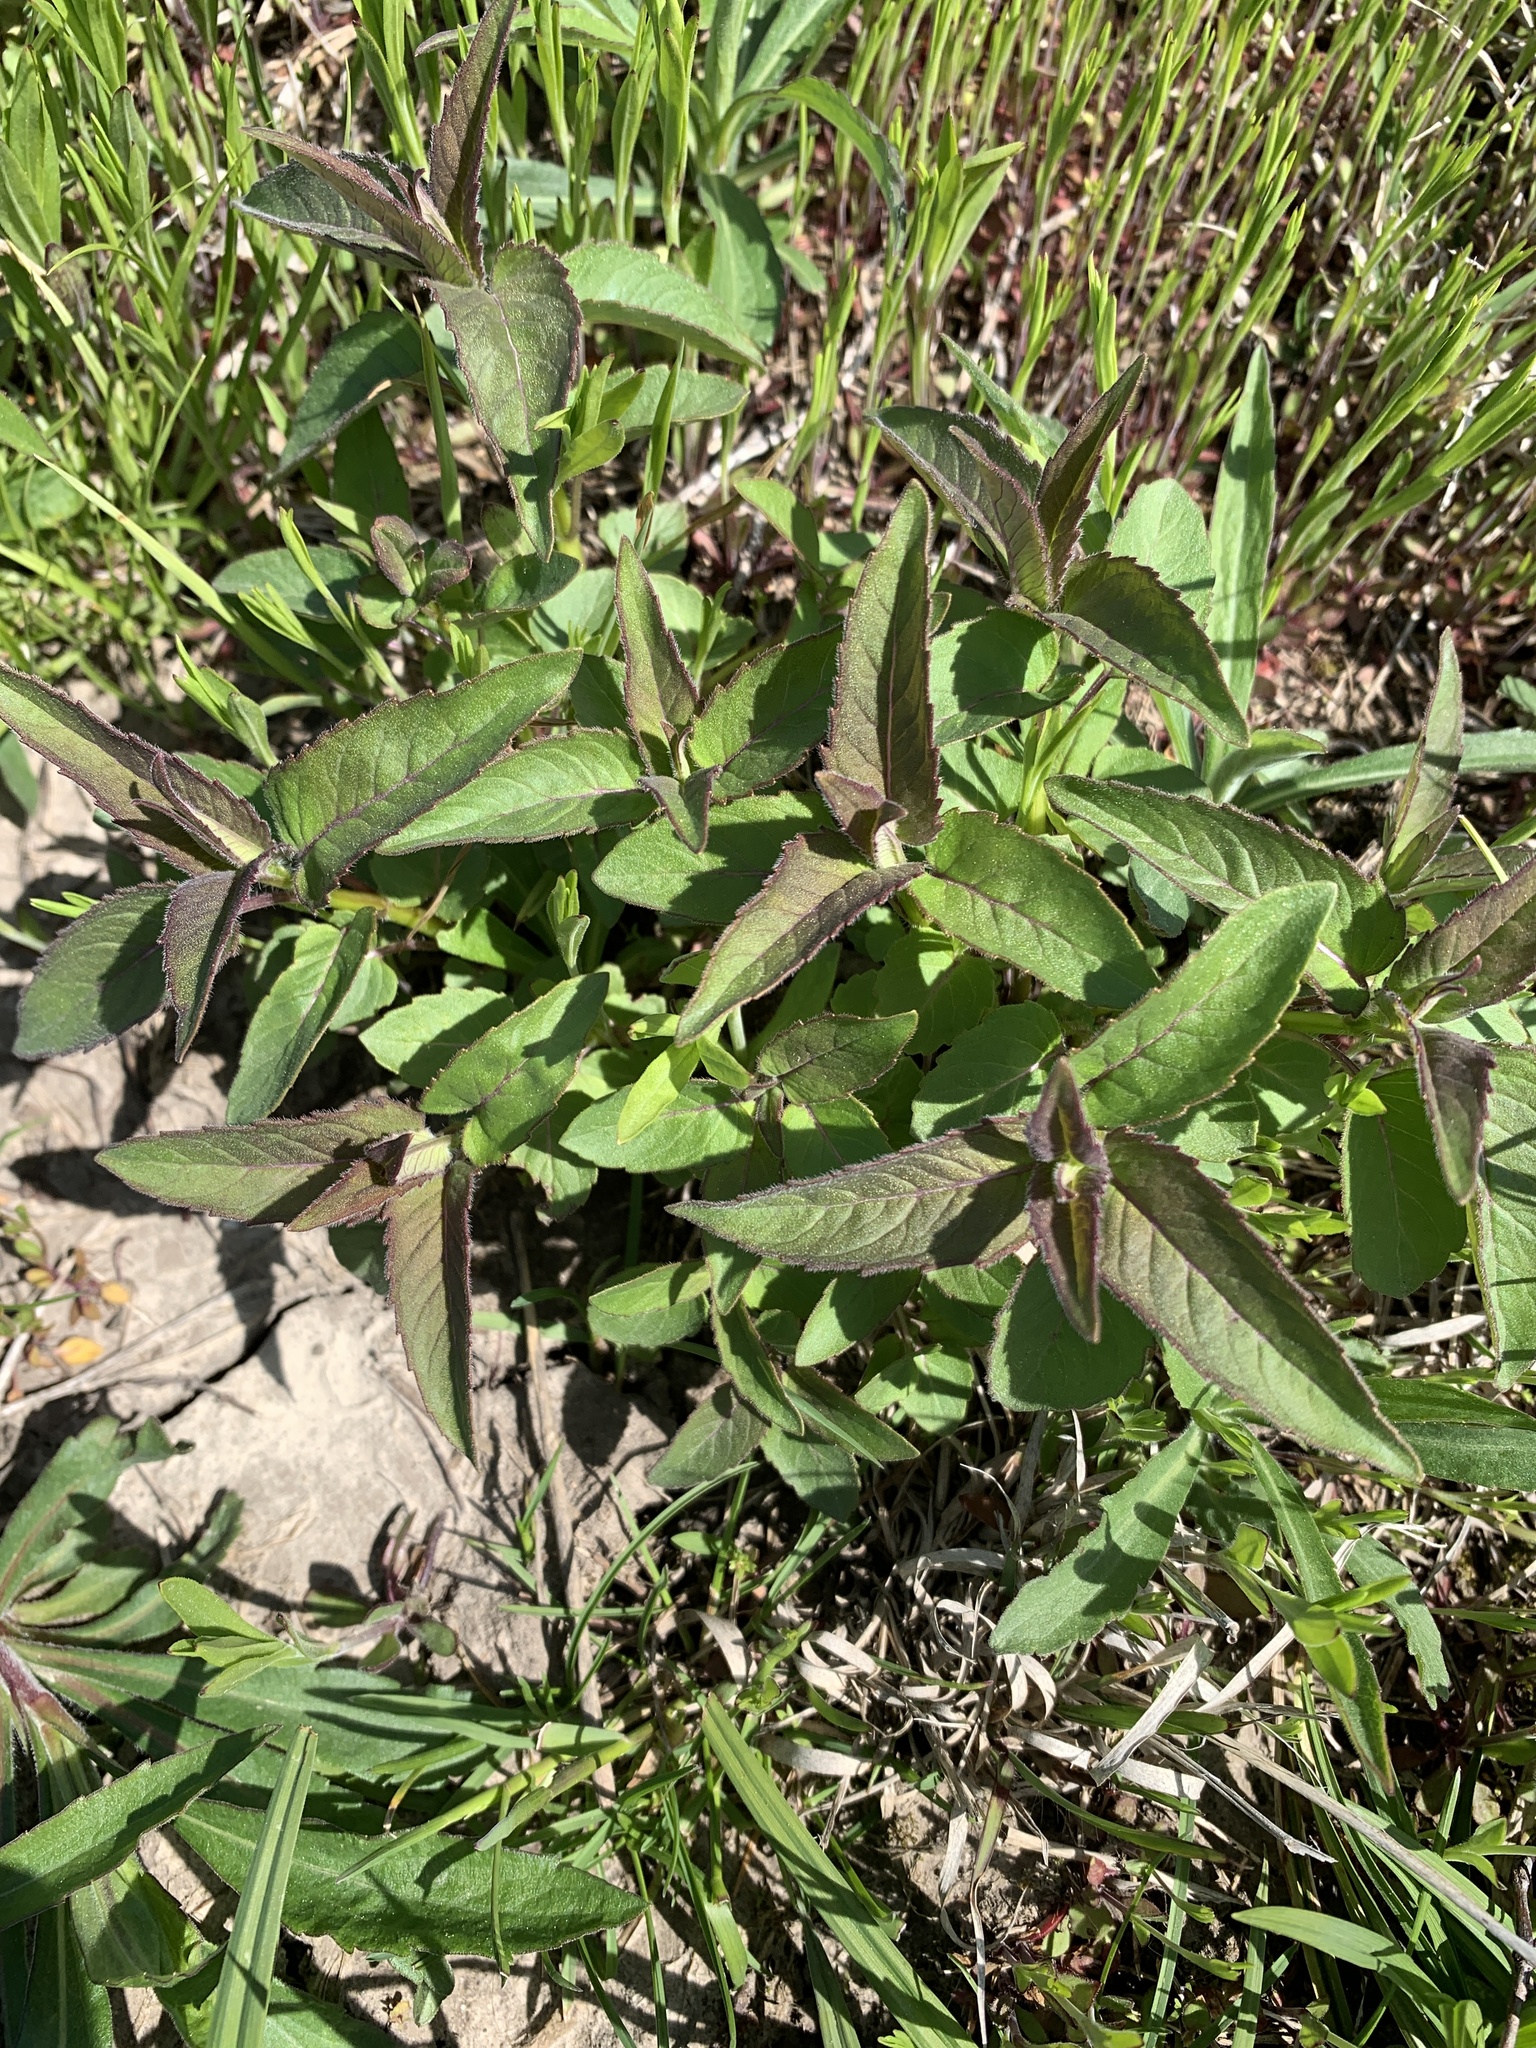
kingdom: Plantae
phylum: Tracheophyta
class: Magnoliopsida
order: Lamiales
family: Lamiaceae
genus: Monarda
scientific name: Monarda fistulosa
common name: Purple beebalm
